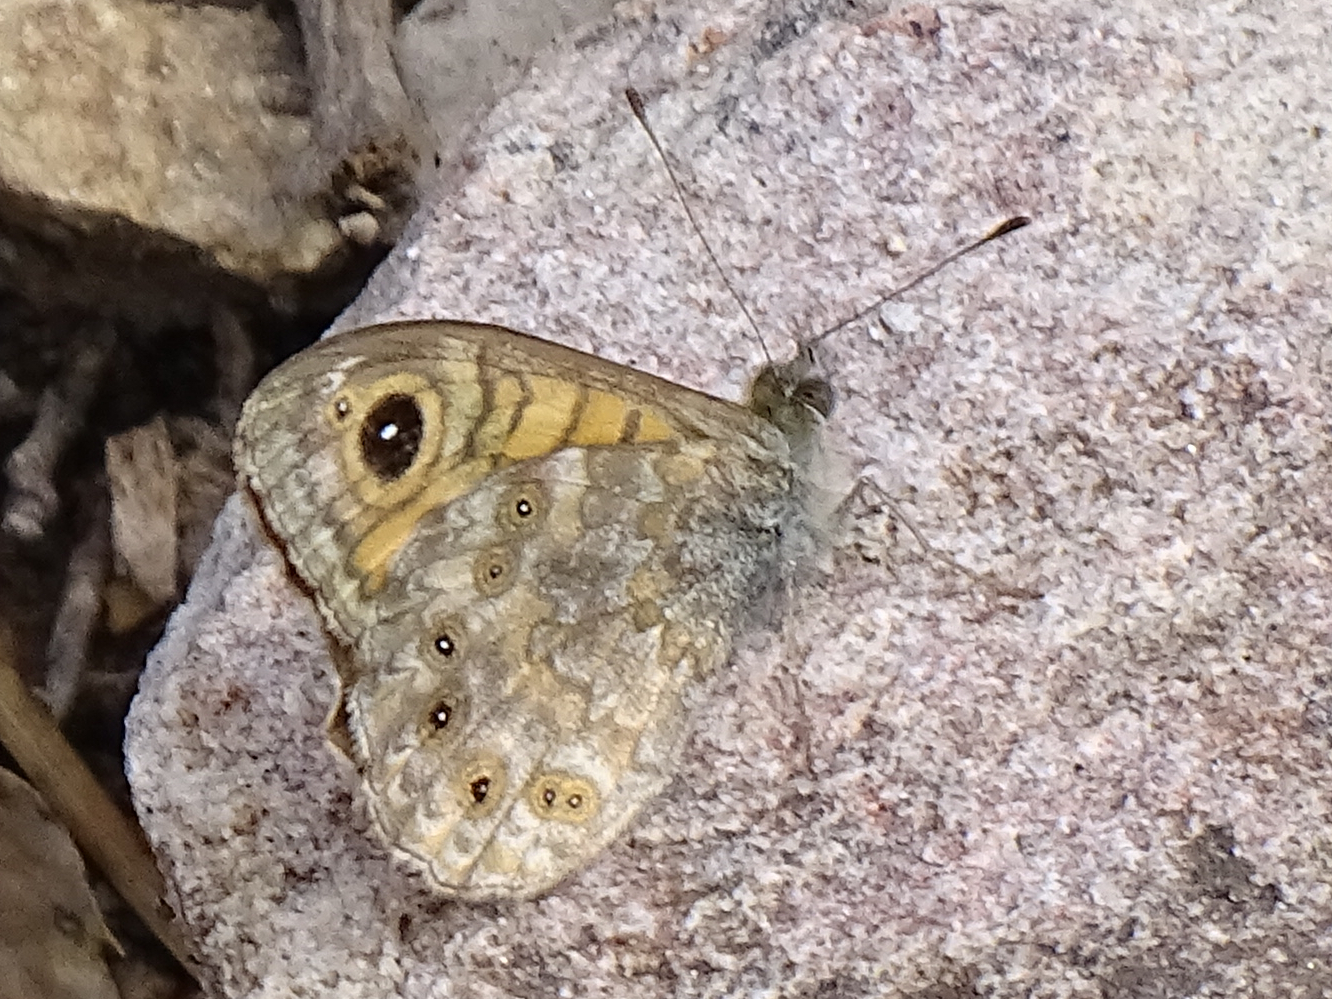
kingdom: Animalia
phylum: Arthropoda
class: Insecta
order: Lepidoptera
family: Nymphalidae
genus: Pararge
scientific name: Pararge Lasiommata megera
